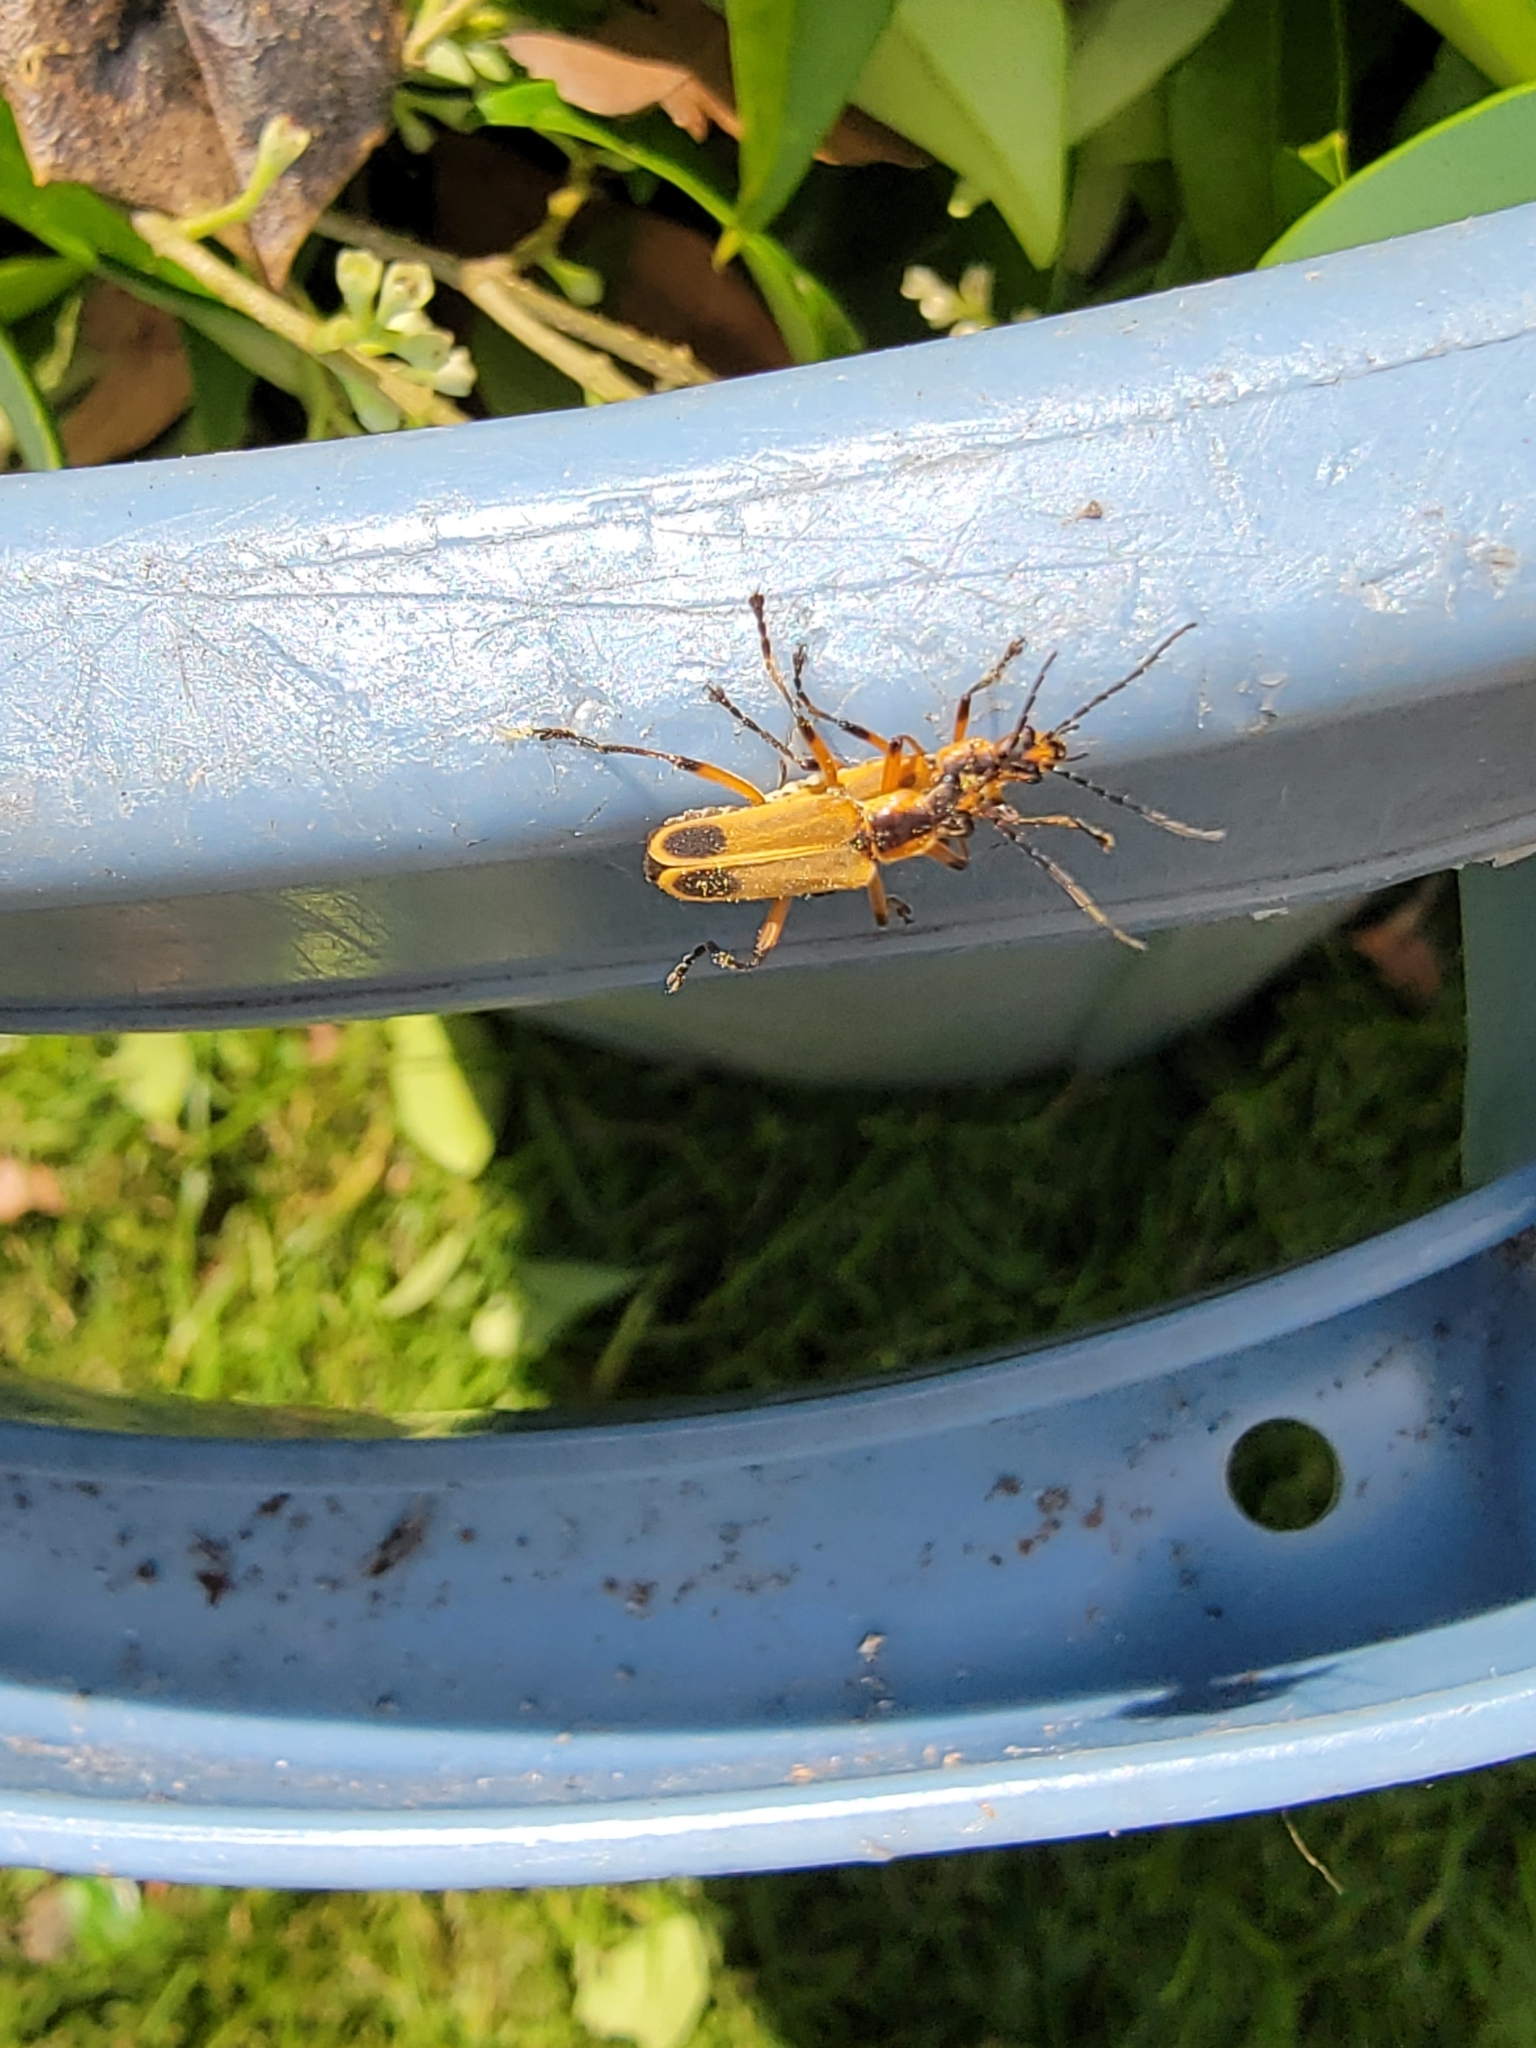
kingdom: Animalia
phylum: Arthropoda
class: Insecta
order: Coleoptera
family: Cantharidae
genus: Chauliognathus
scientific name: Chauliognathus marginatus
